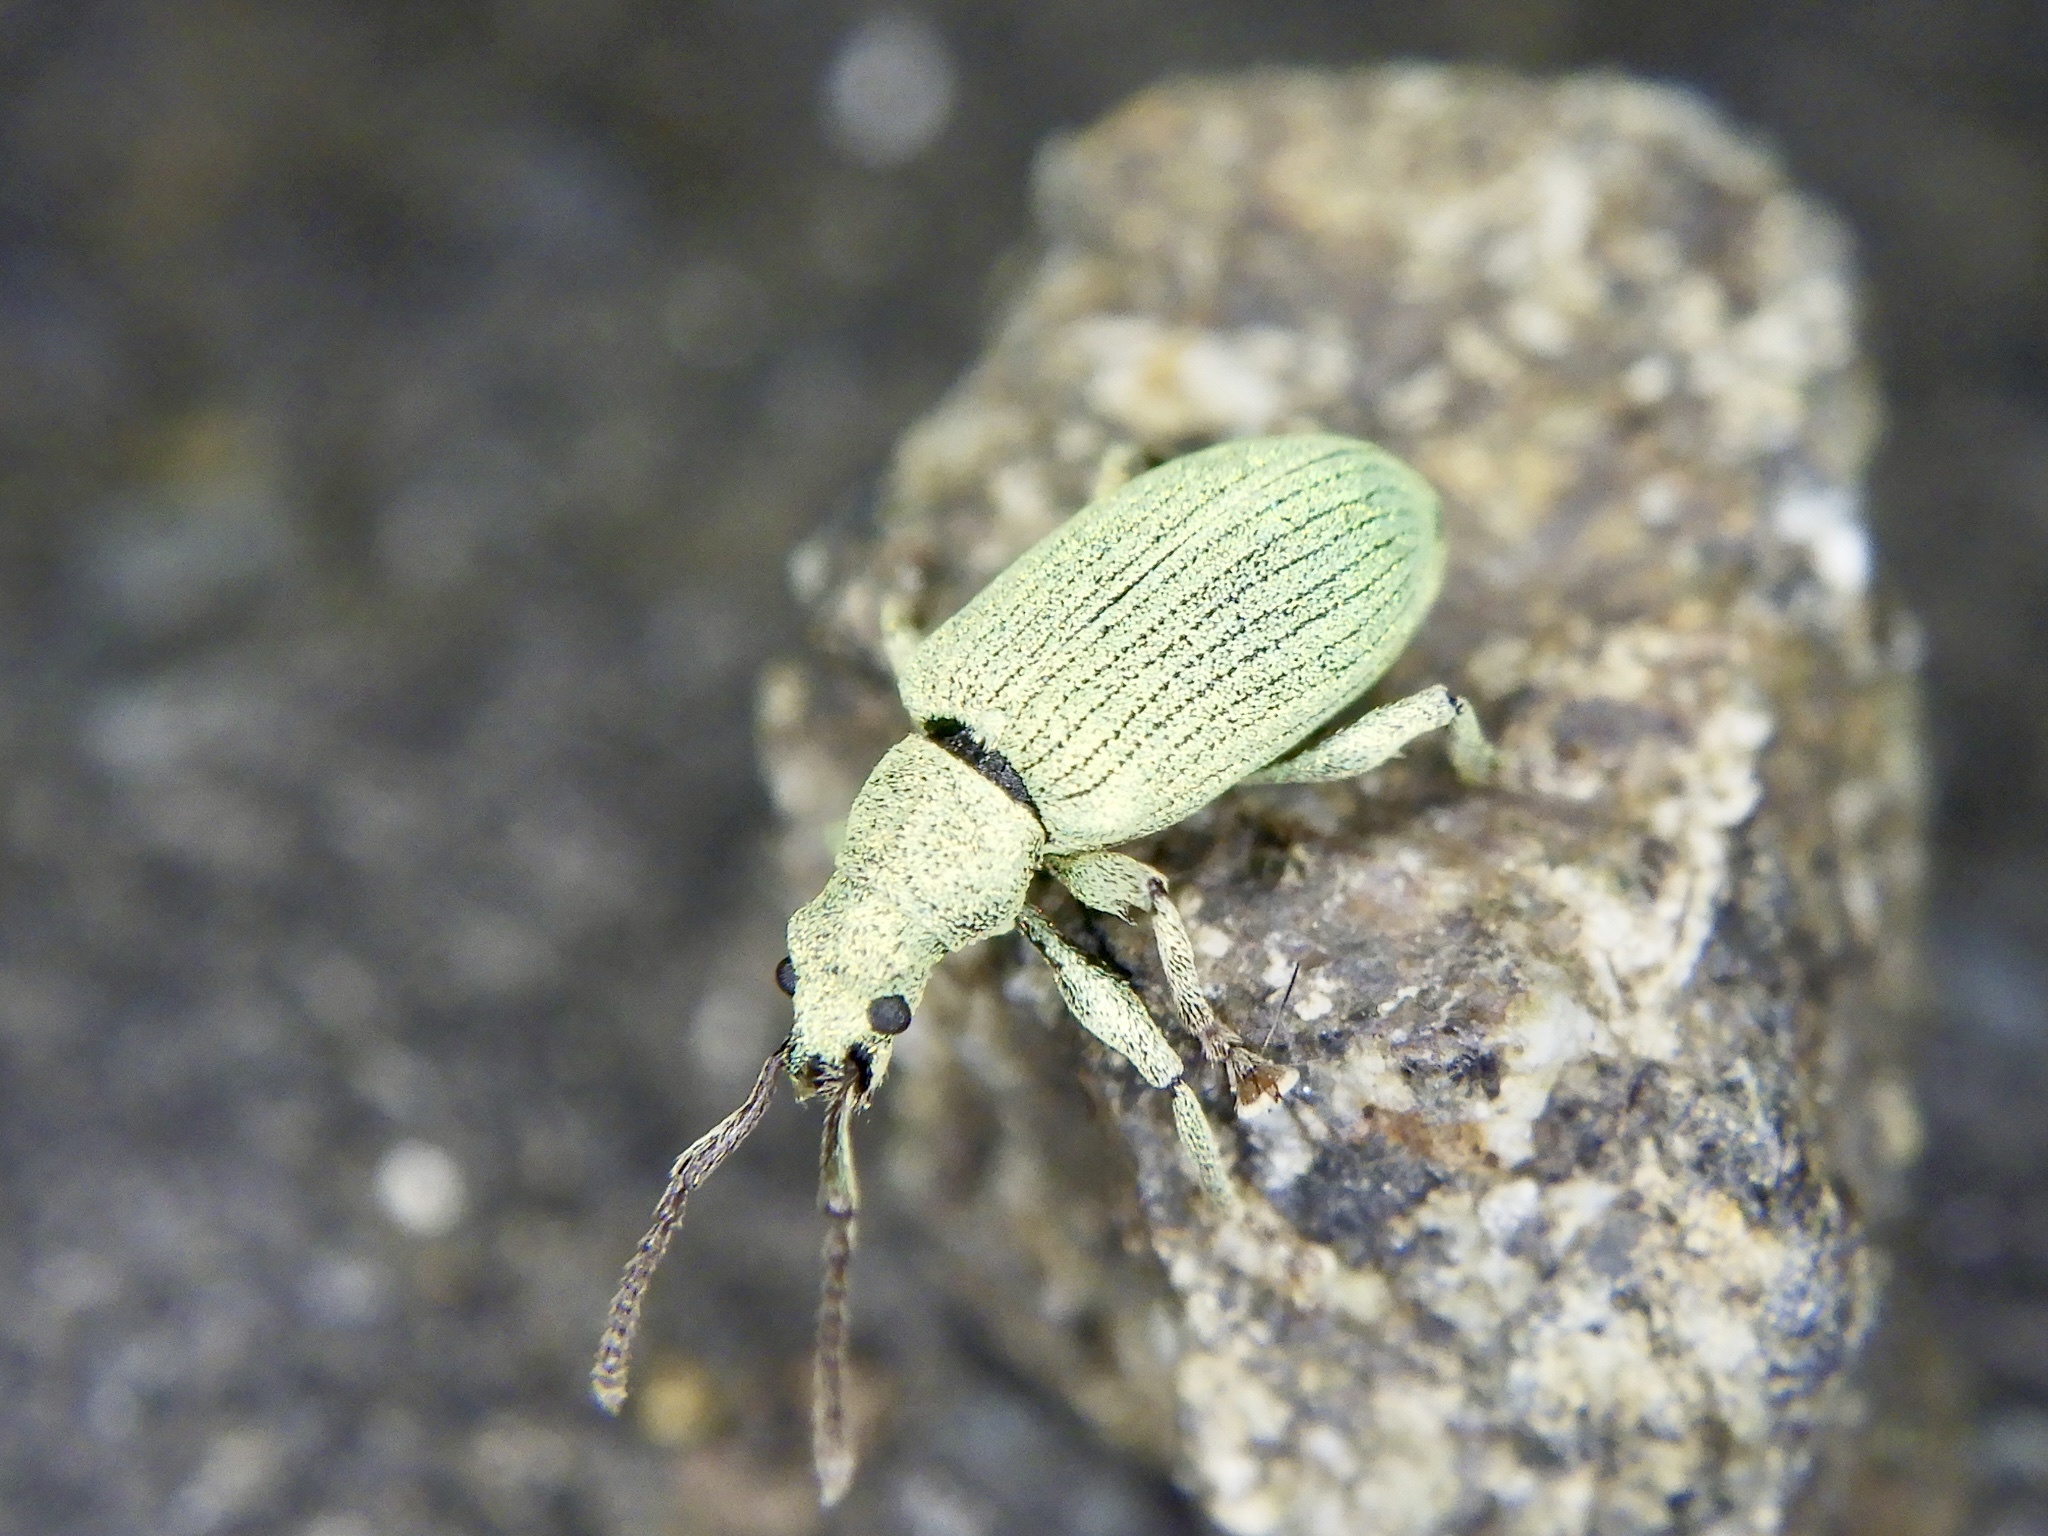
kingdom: Animalia
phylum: Arthropoda
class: Insecta
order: Coleoptera
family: Curculionidae
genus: Ophryophyllobius
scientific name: Ophryophyllobius polydrusoides
